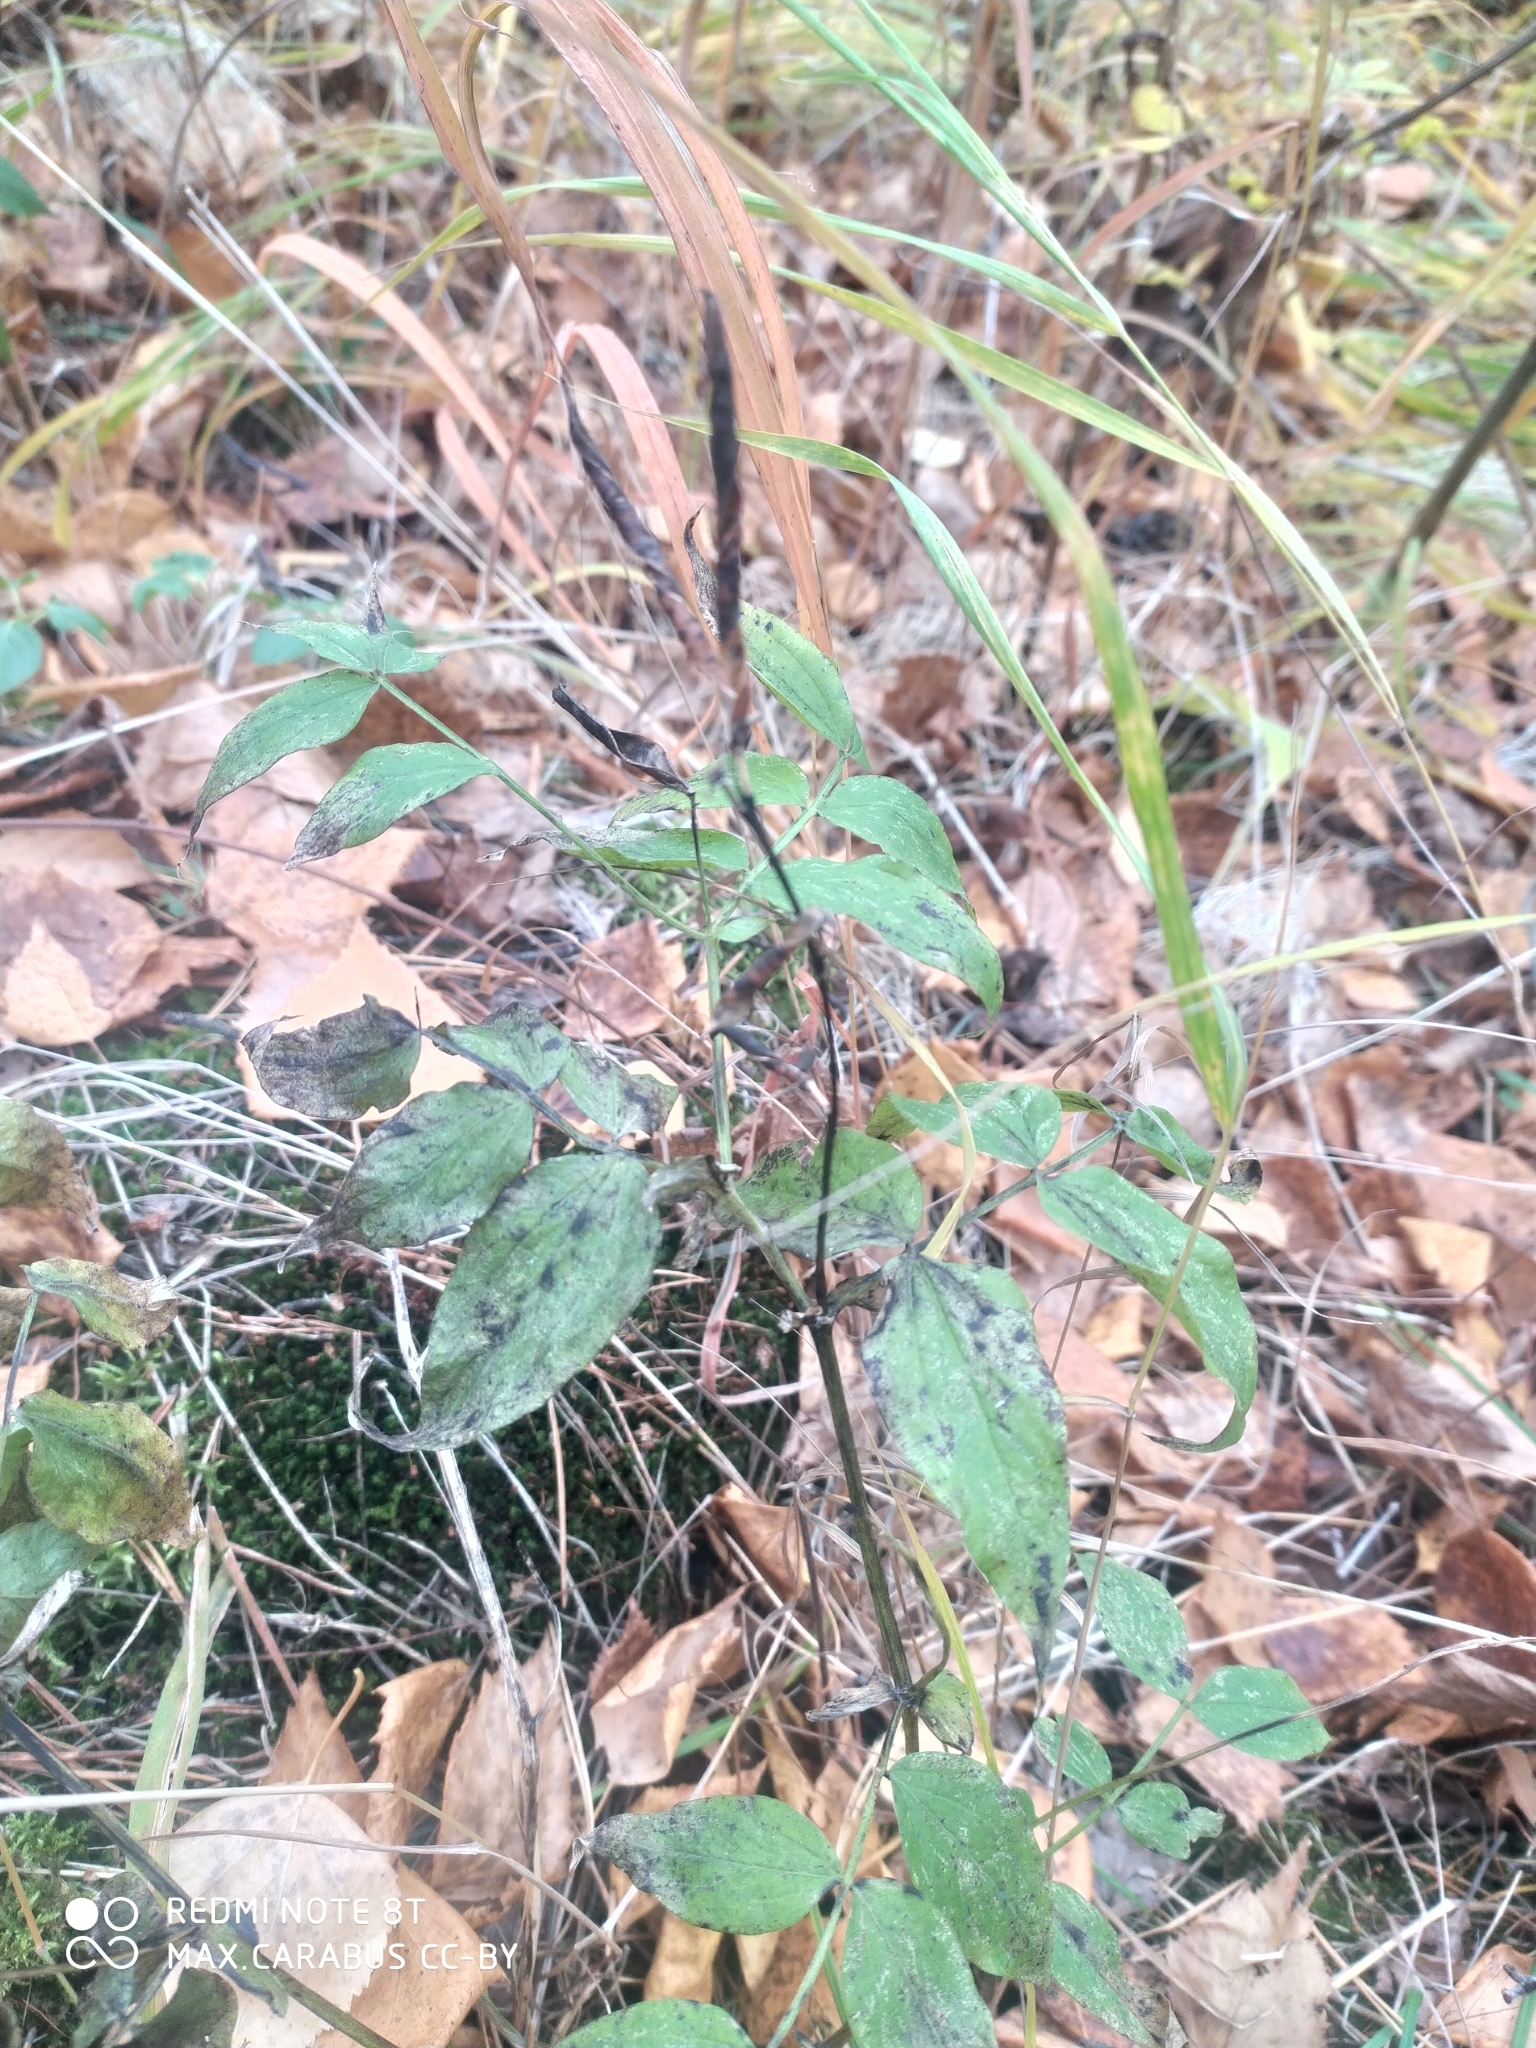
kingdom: Plantae
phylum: Tracheophyta
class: Magnoliopsida
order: Fabales
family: Fabaceae
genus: Lathyrus
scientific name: Lathyrus vernus
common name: Spring pea
